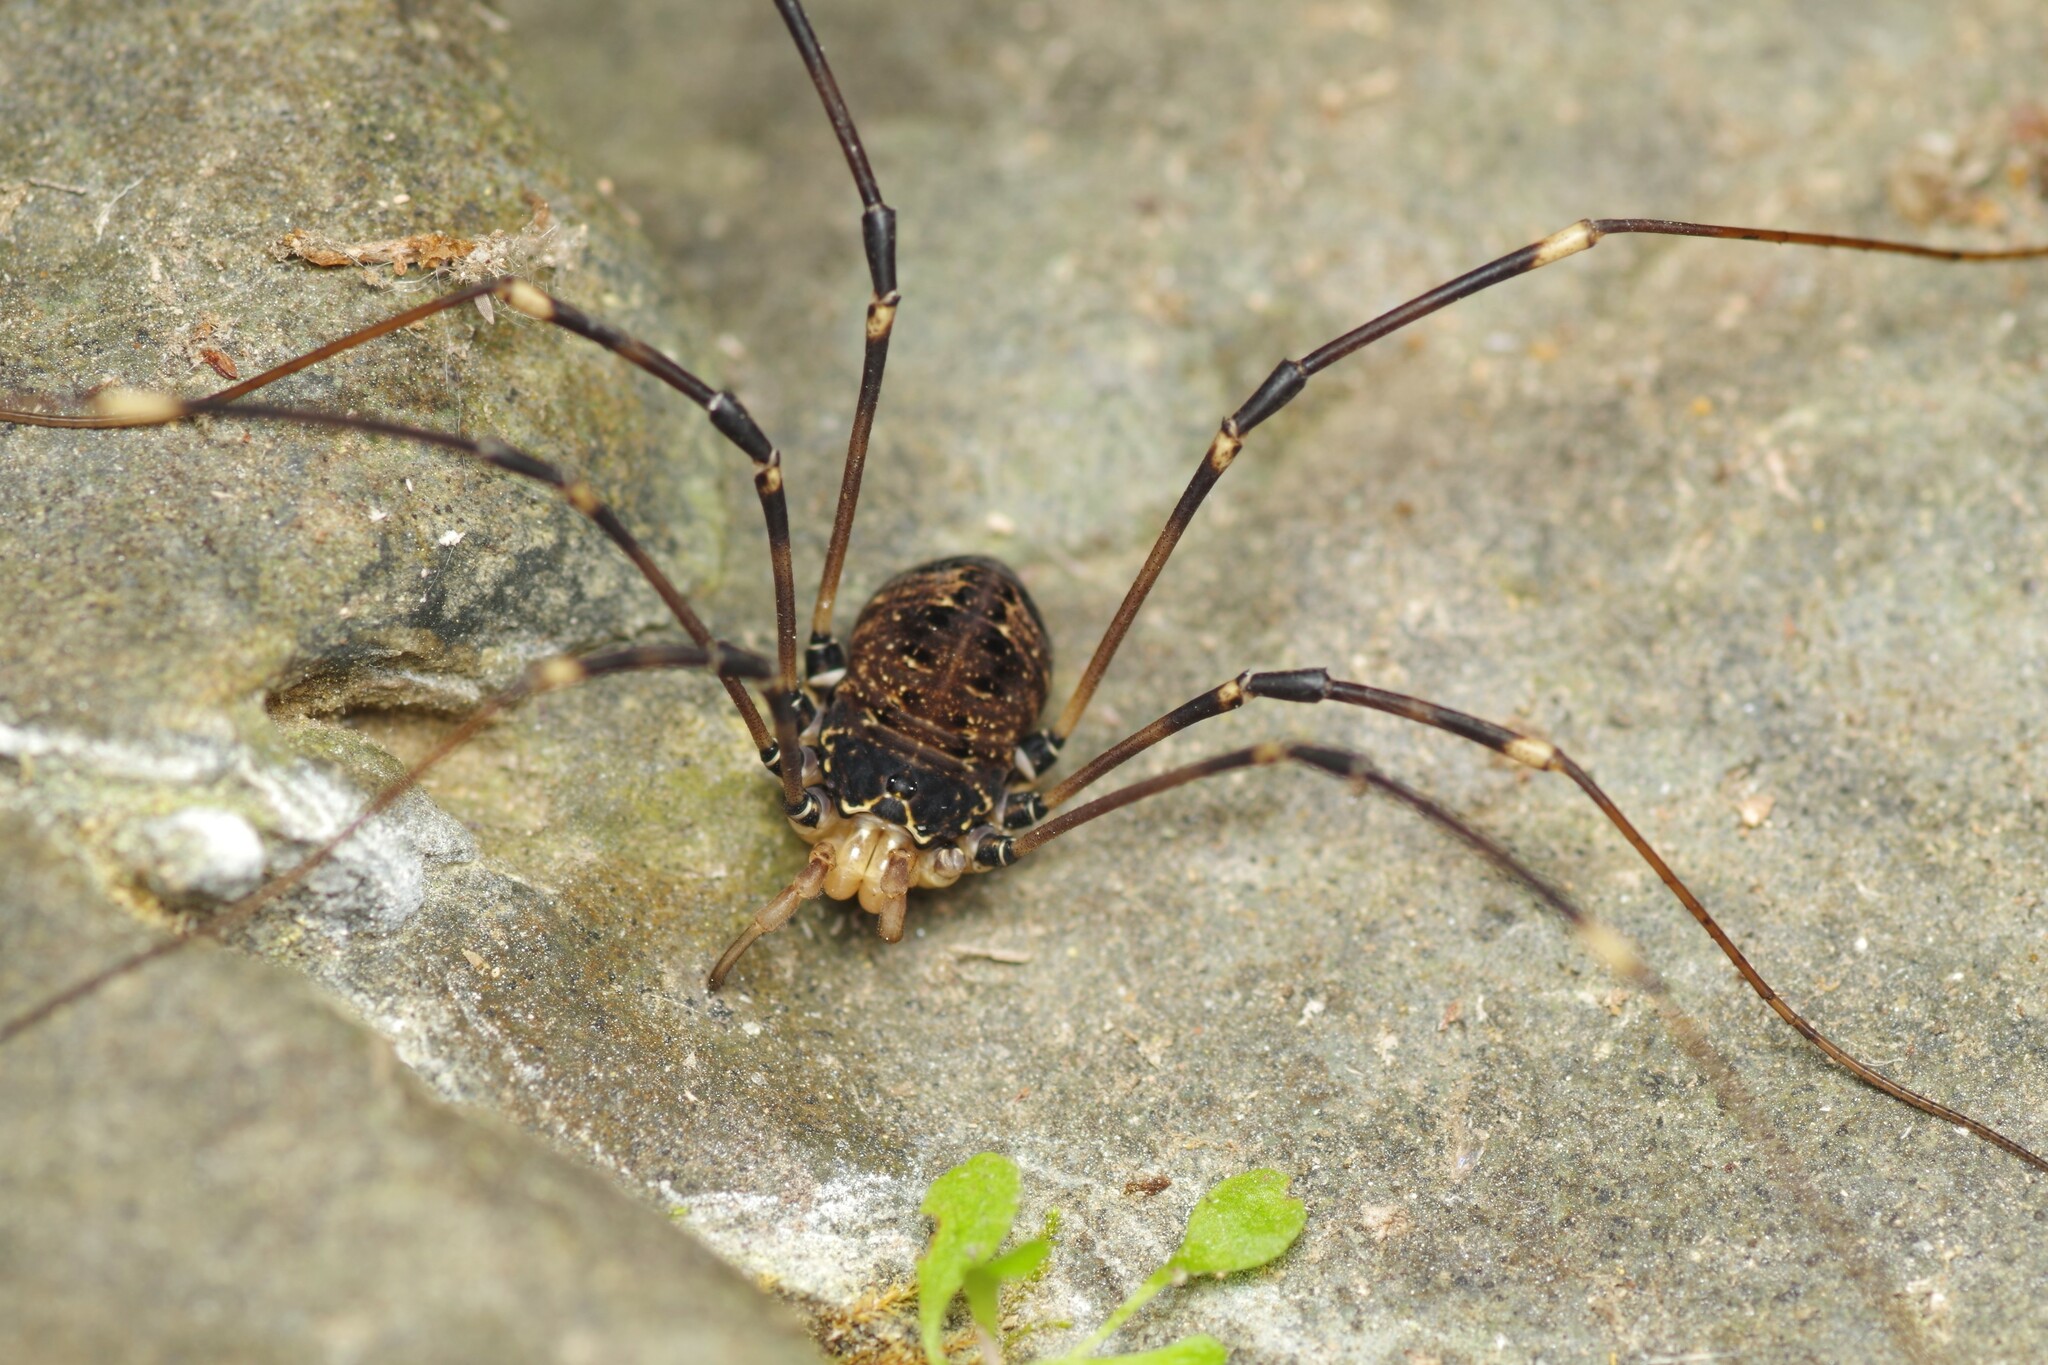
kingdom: Animalia
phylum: Arthropoda
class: Arachnida
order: Opiliones
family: Sclerosomatidae
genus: Gyas
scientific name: Gyas titanus
